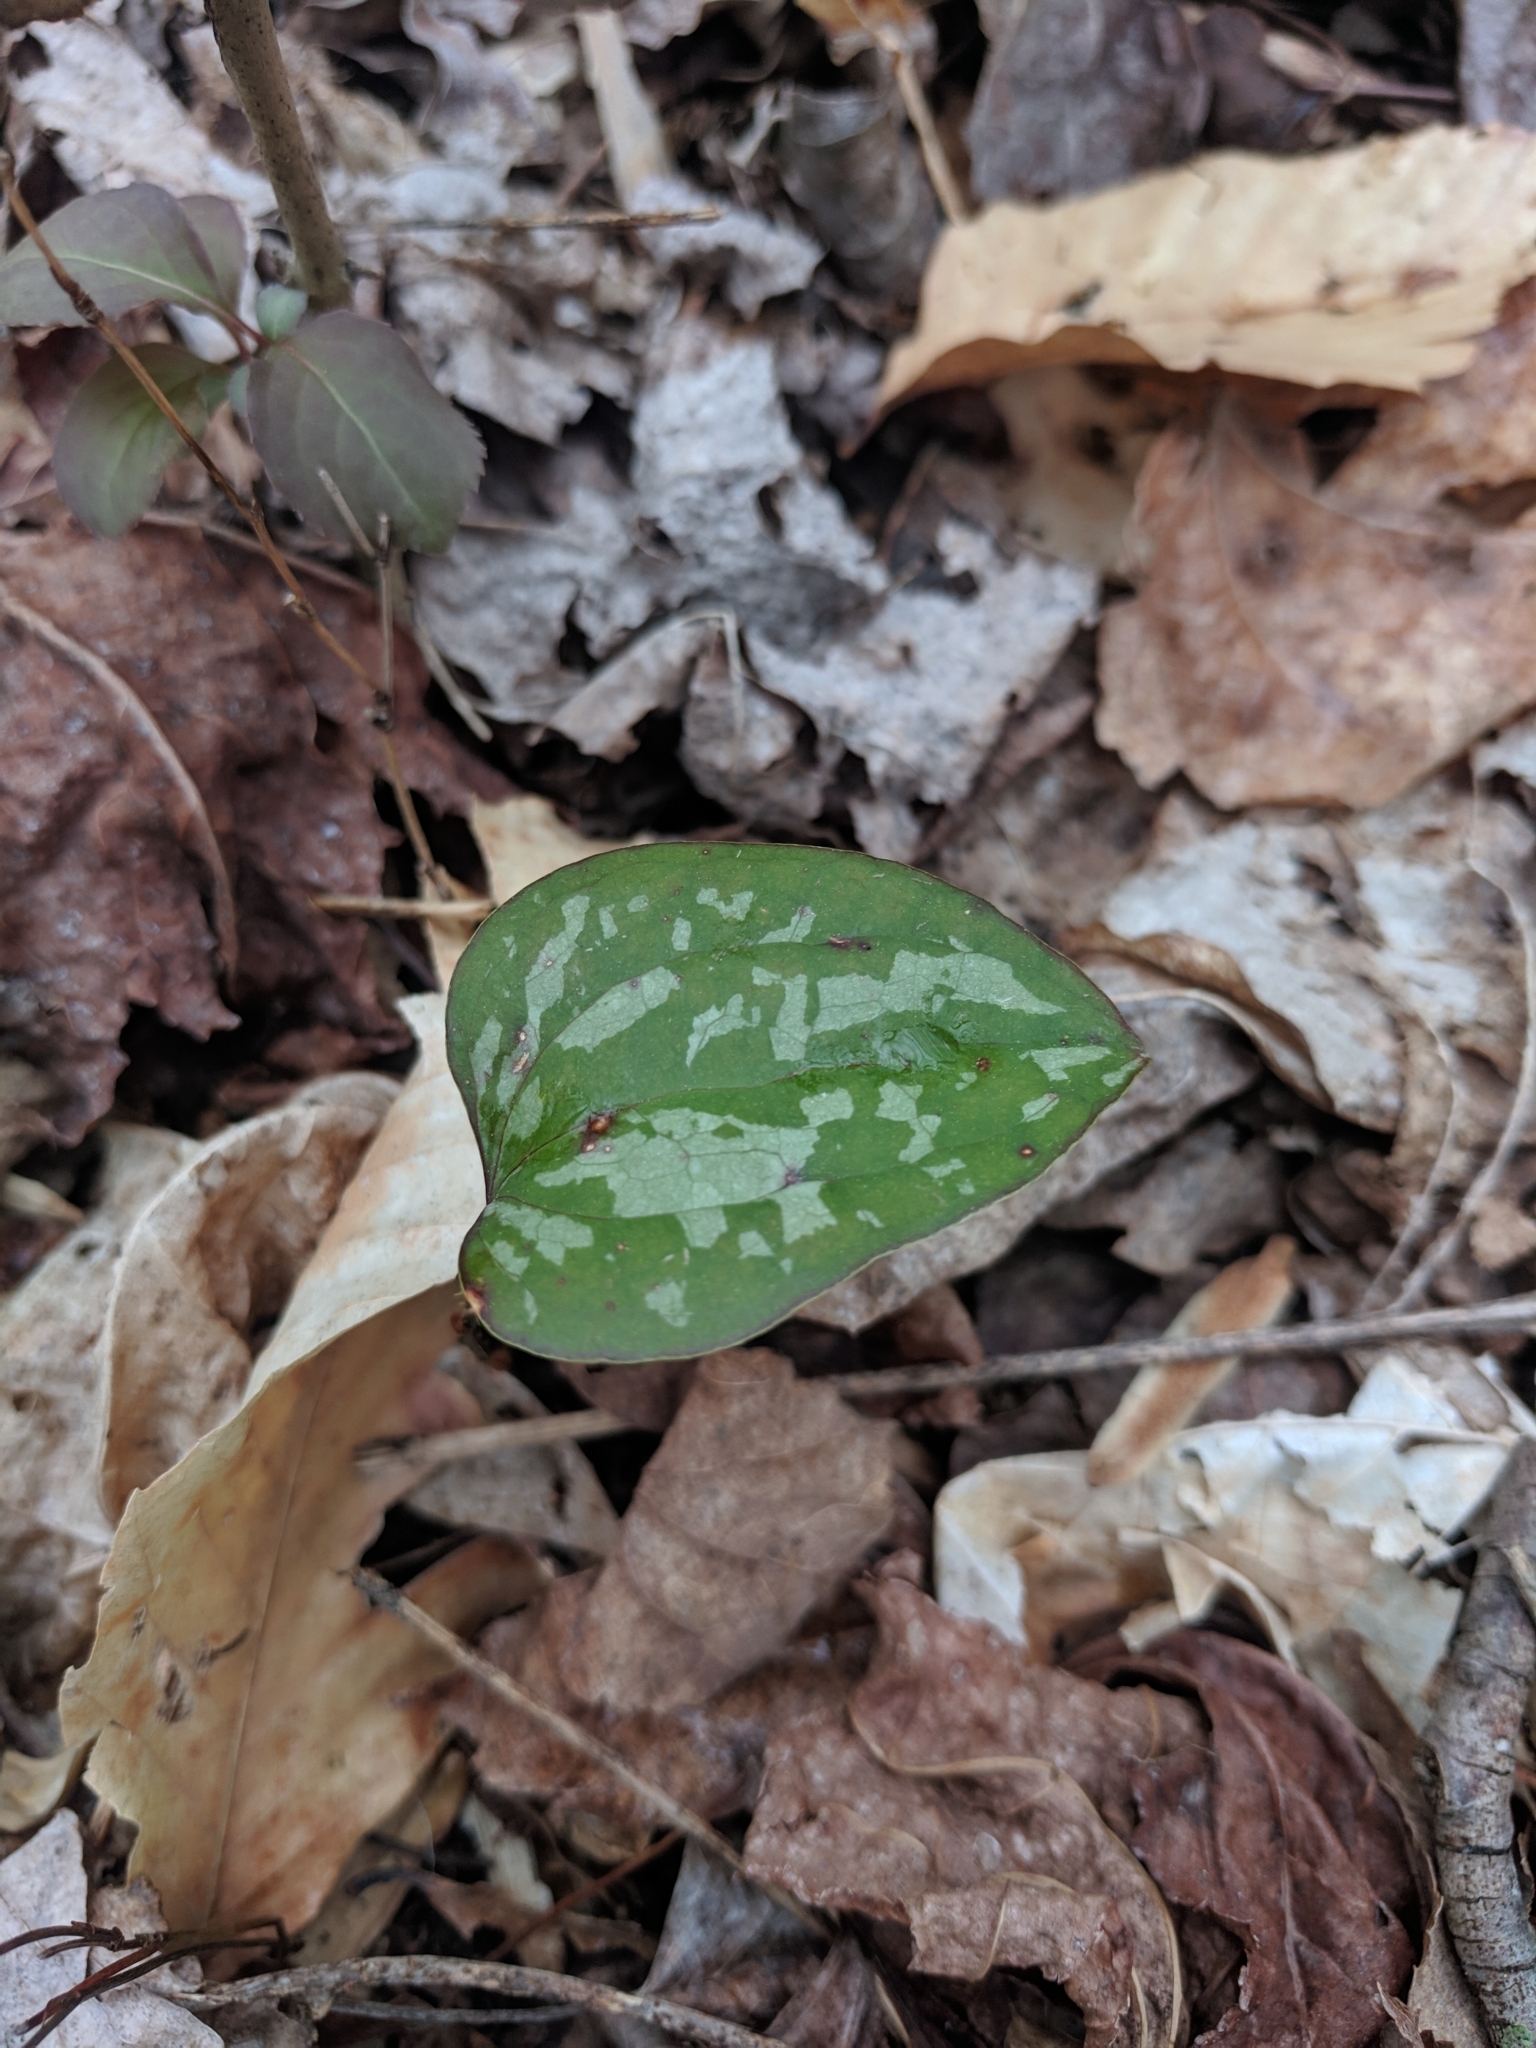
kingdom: Plantae
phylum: Tracheophyta
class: Liliopsida
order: Liliales
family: Smilacaceae
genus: Smilax
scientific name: Smilax glauca
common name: Cat greenbrier
